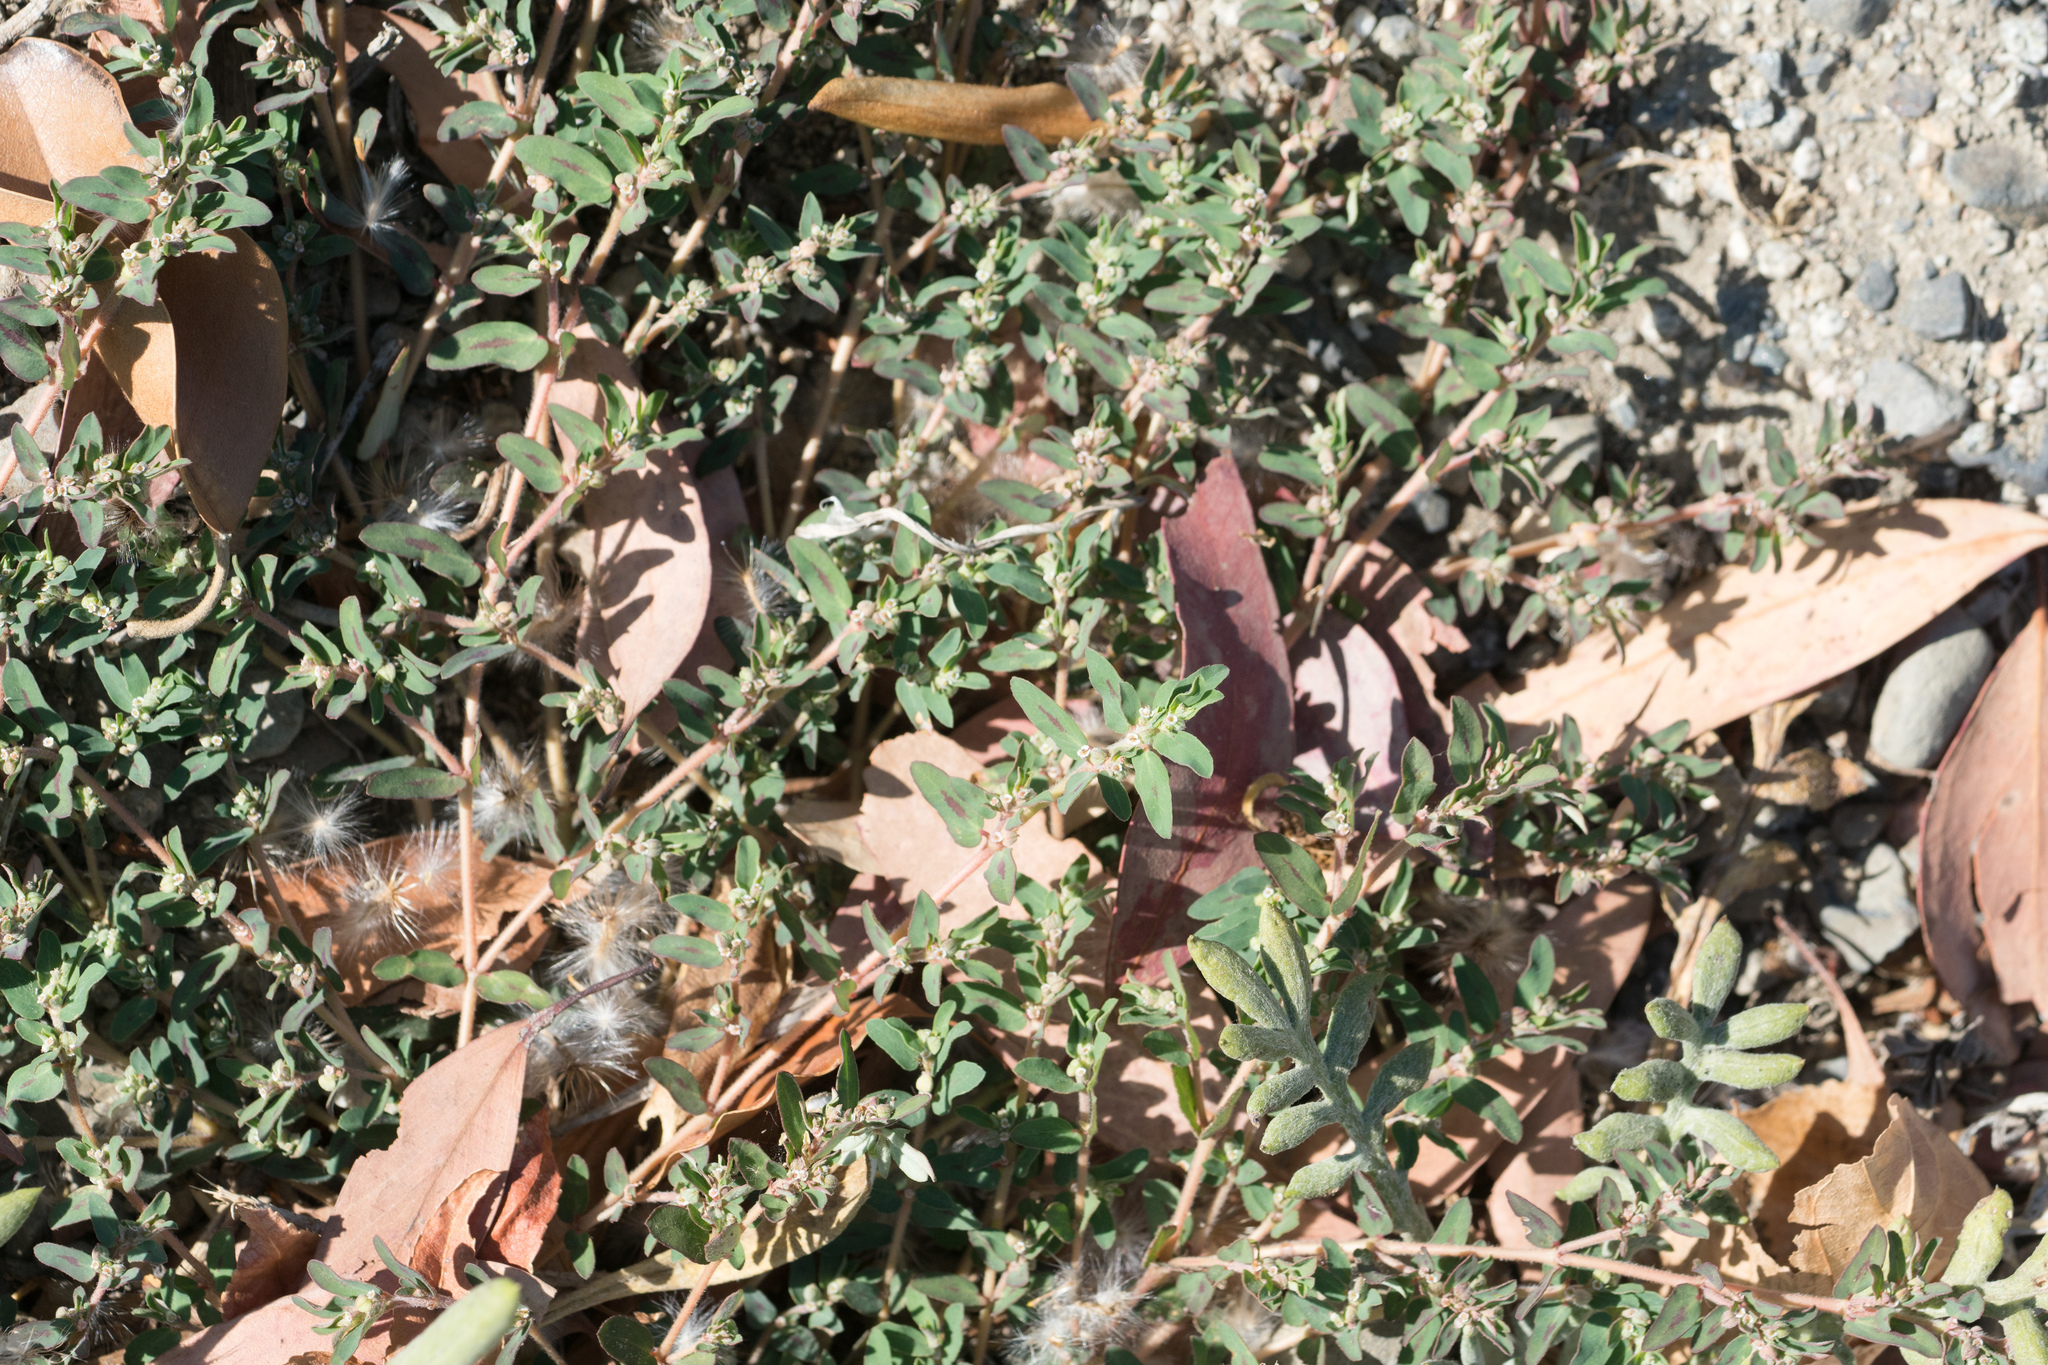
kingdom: Plantae
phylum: Tracheophyta
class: Magnoliopsida
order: Malpighiales
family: Euphorbiaceae
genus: Euphorbia
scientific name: Euphorbia maculata
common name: Spotted spurge
